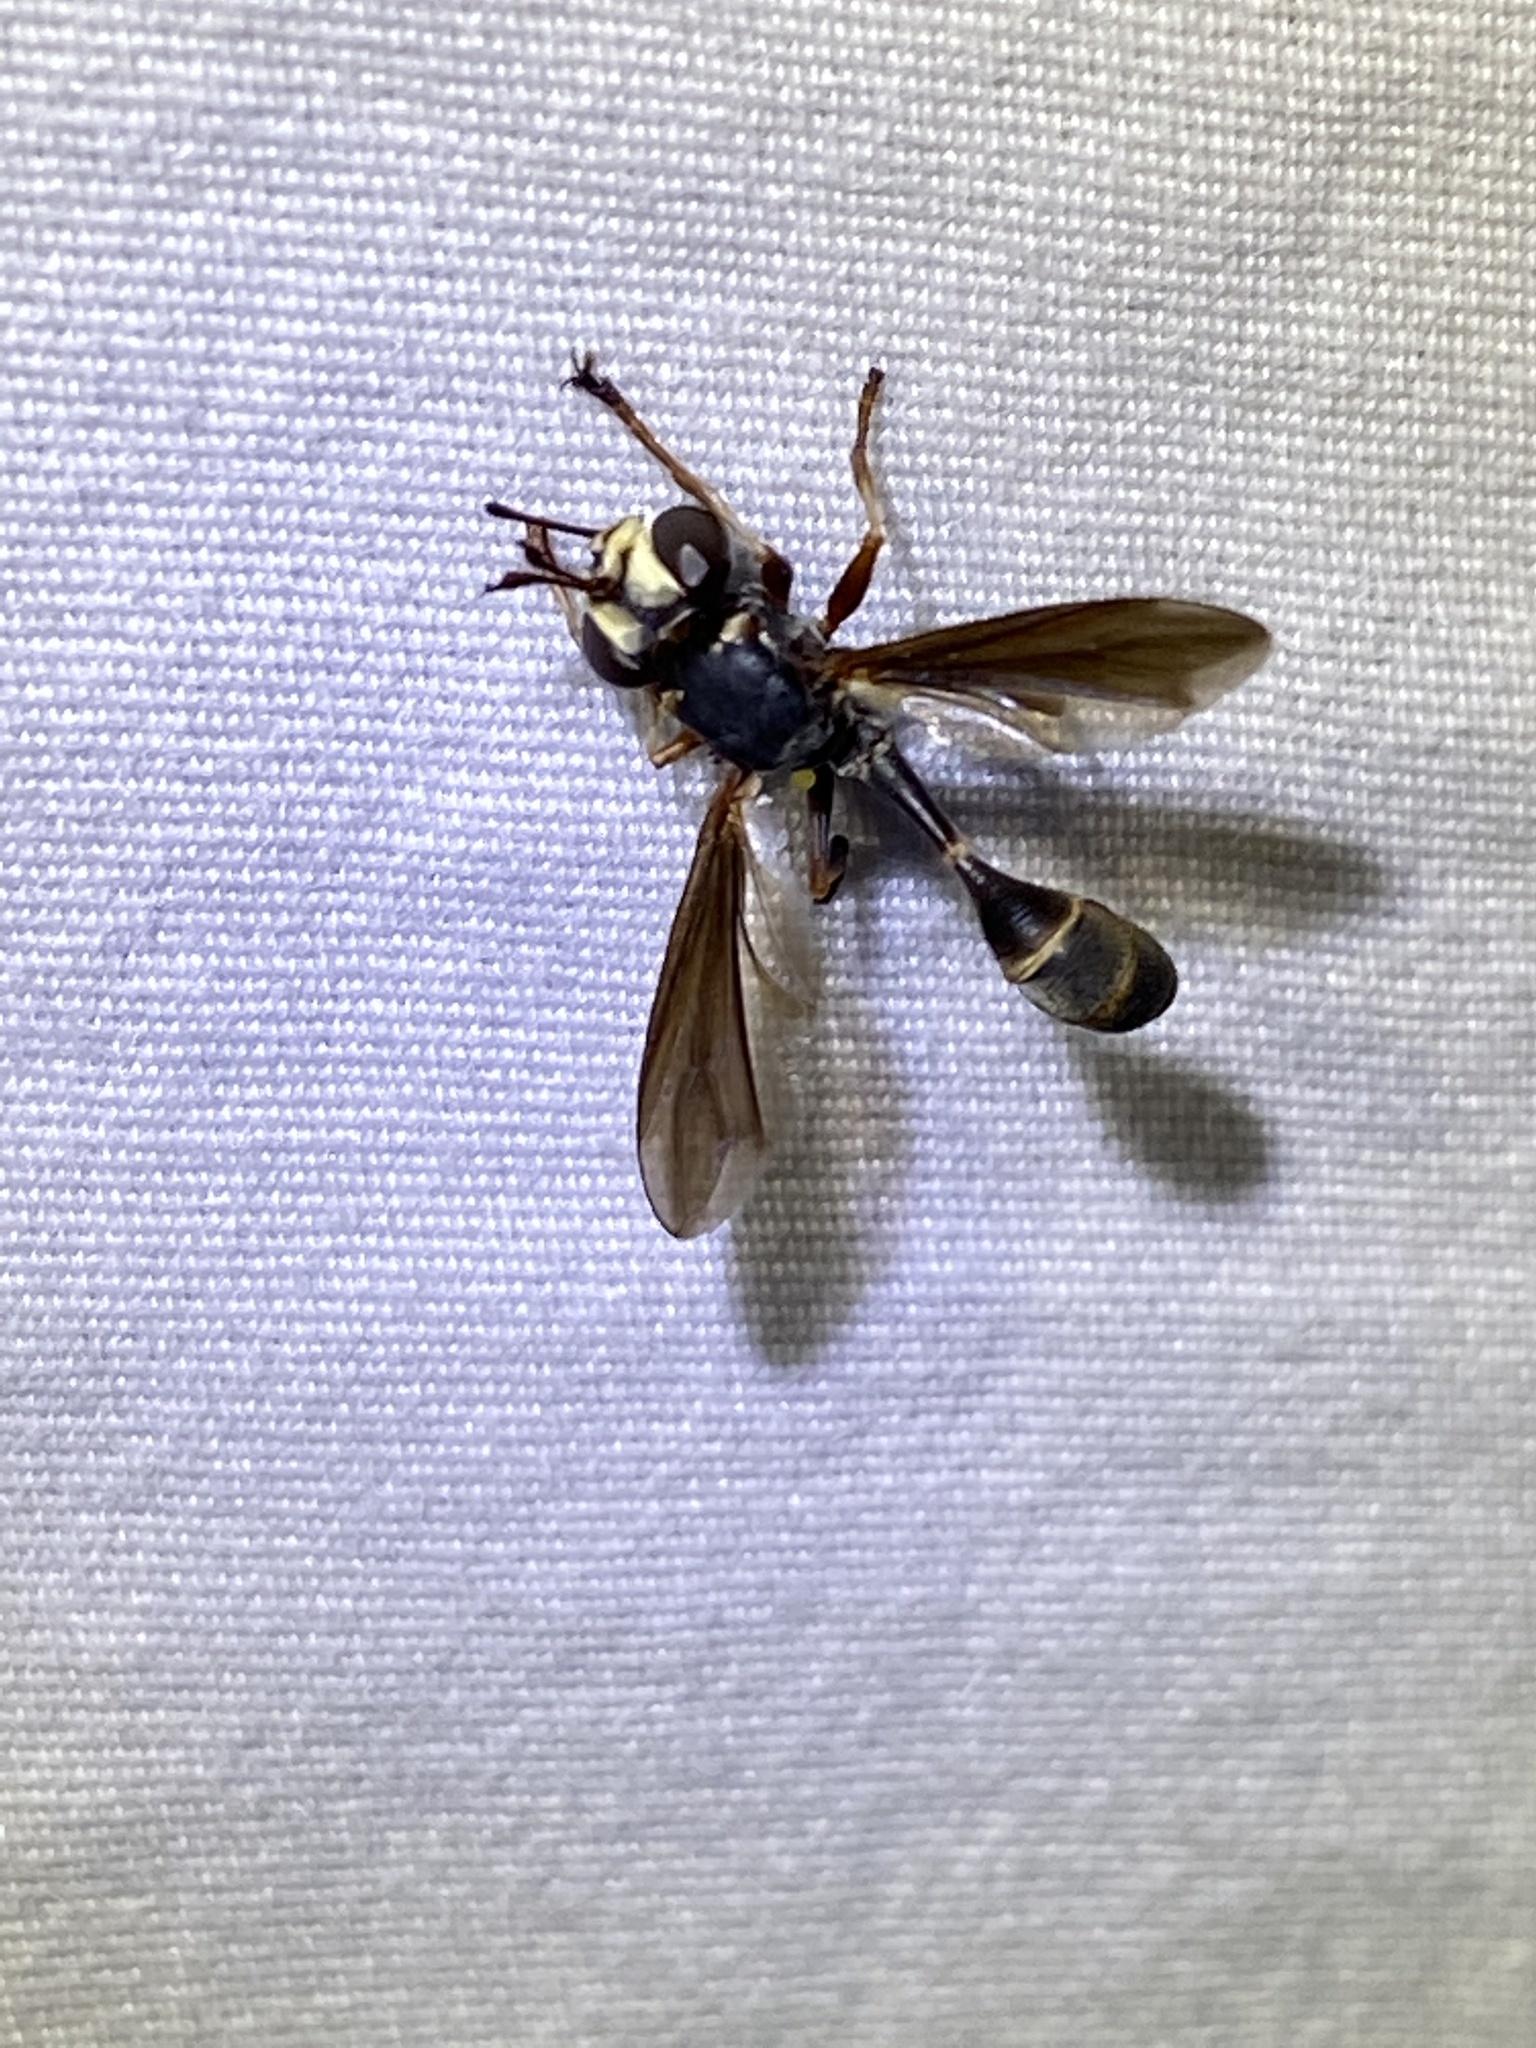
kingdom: Animalia
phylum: Arthropoda
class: Insecta
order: Diptera
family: Conopidae
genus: Physocephala
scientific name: Physocephala tibialis
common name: Common eastern physocephala
